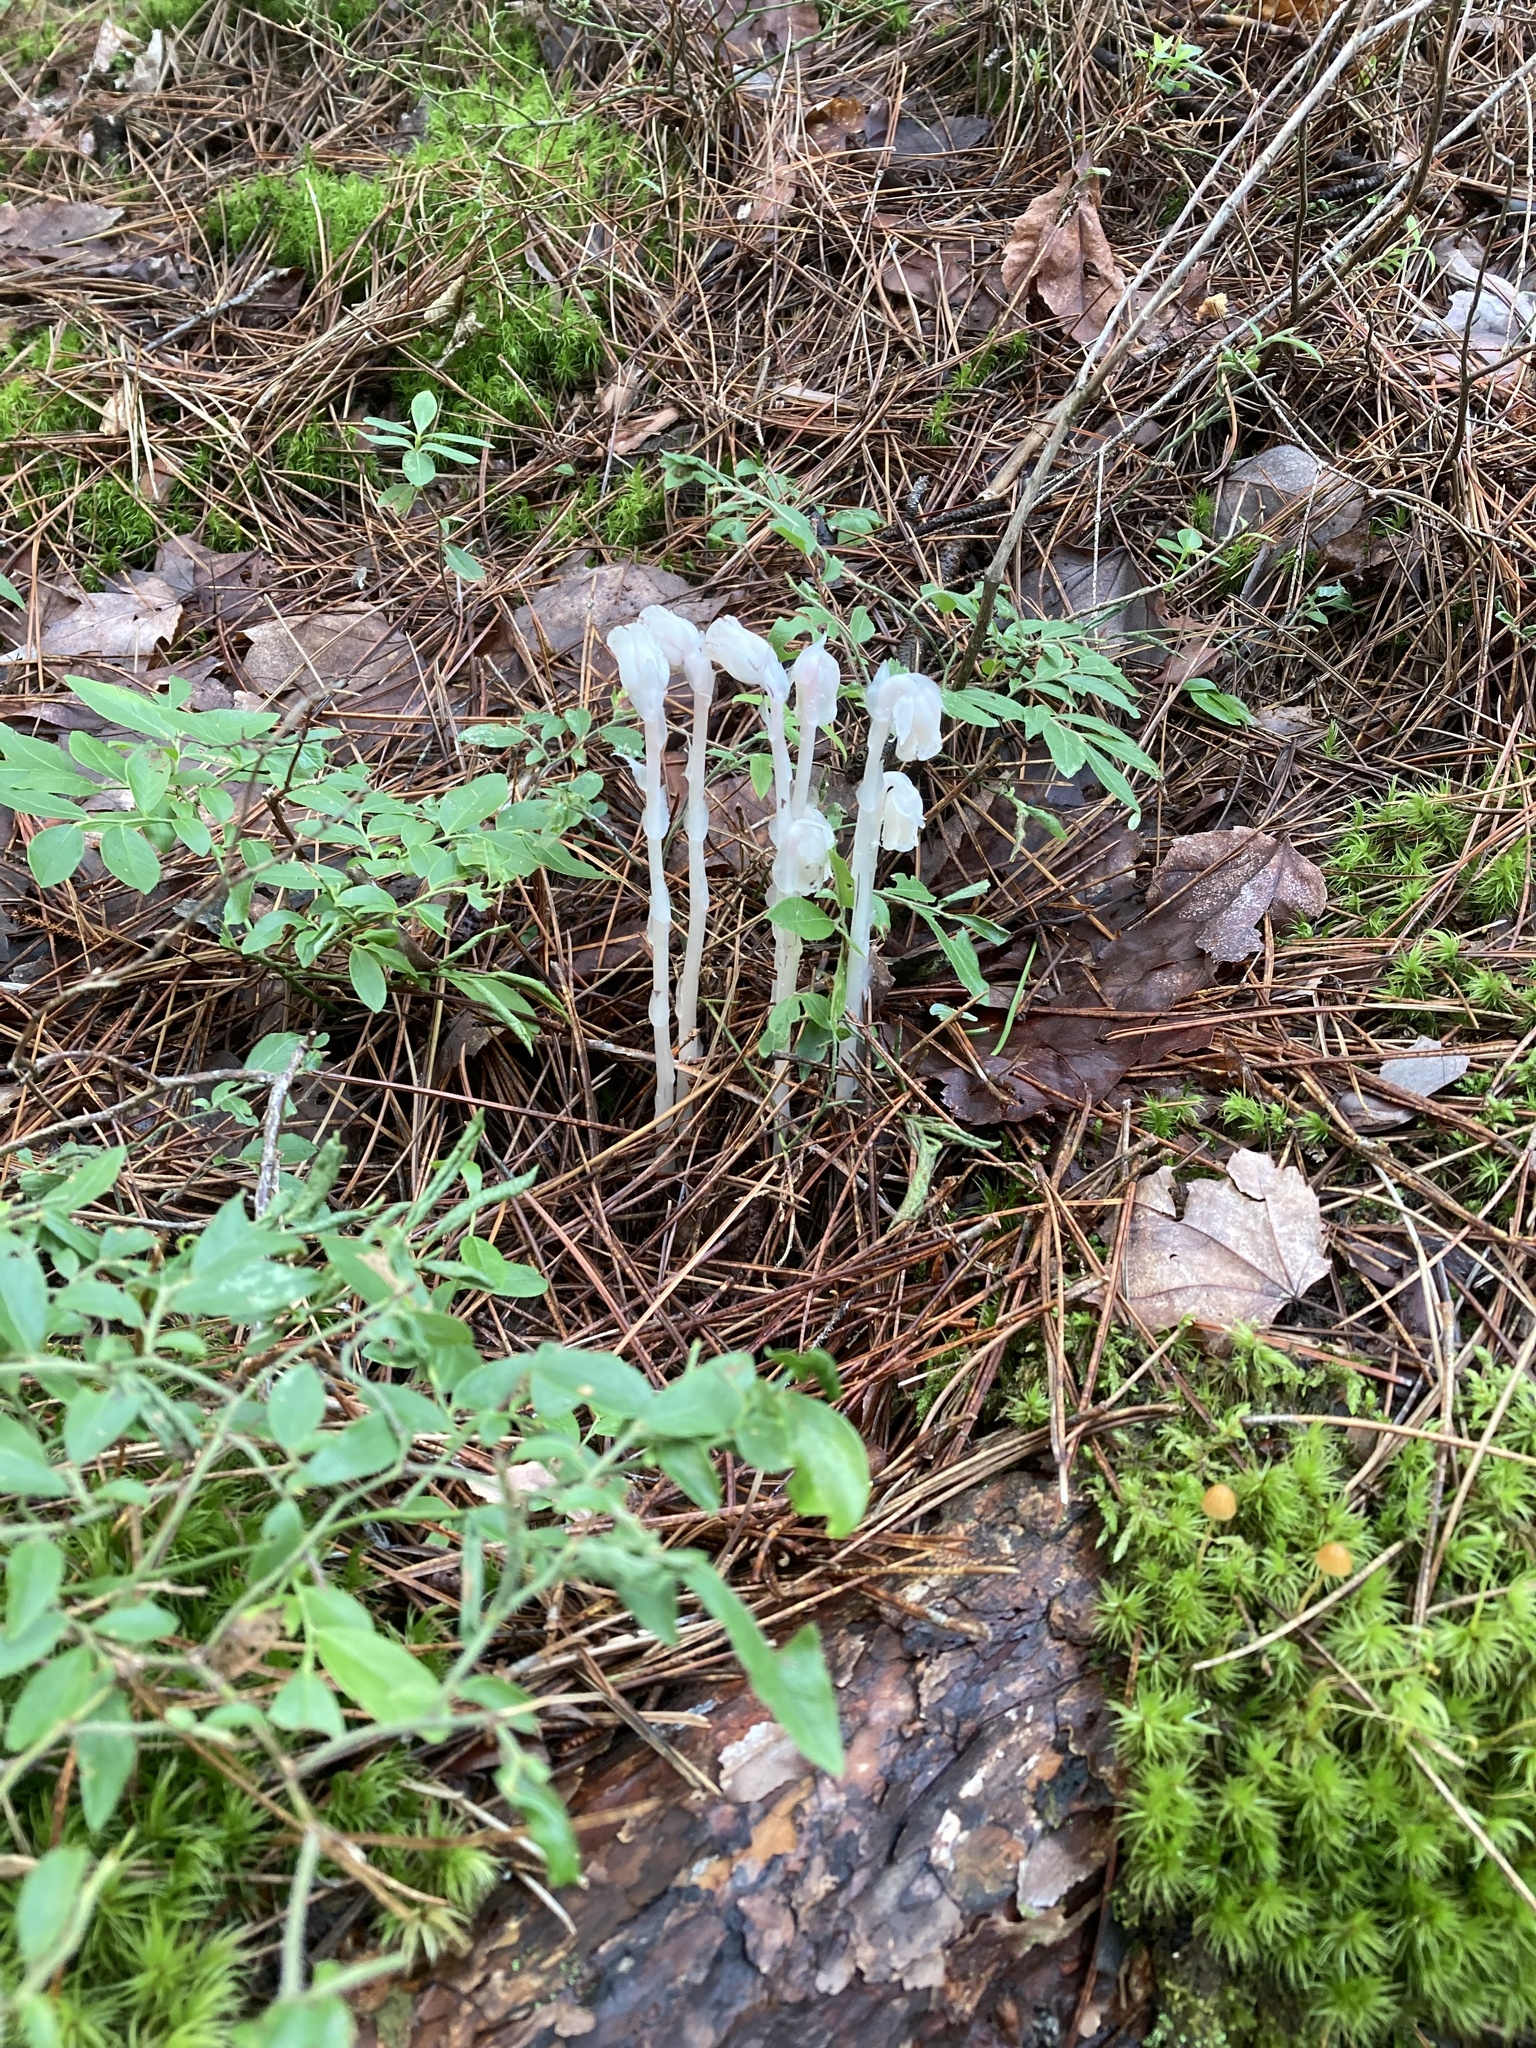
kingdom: Plantae
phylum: Tracheophyta
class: Magnoliopsida
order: Ericales
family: Ericaceae
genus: Monotropa
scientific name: Monotropa uniflora
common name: Convulsion root
